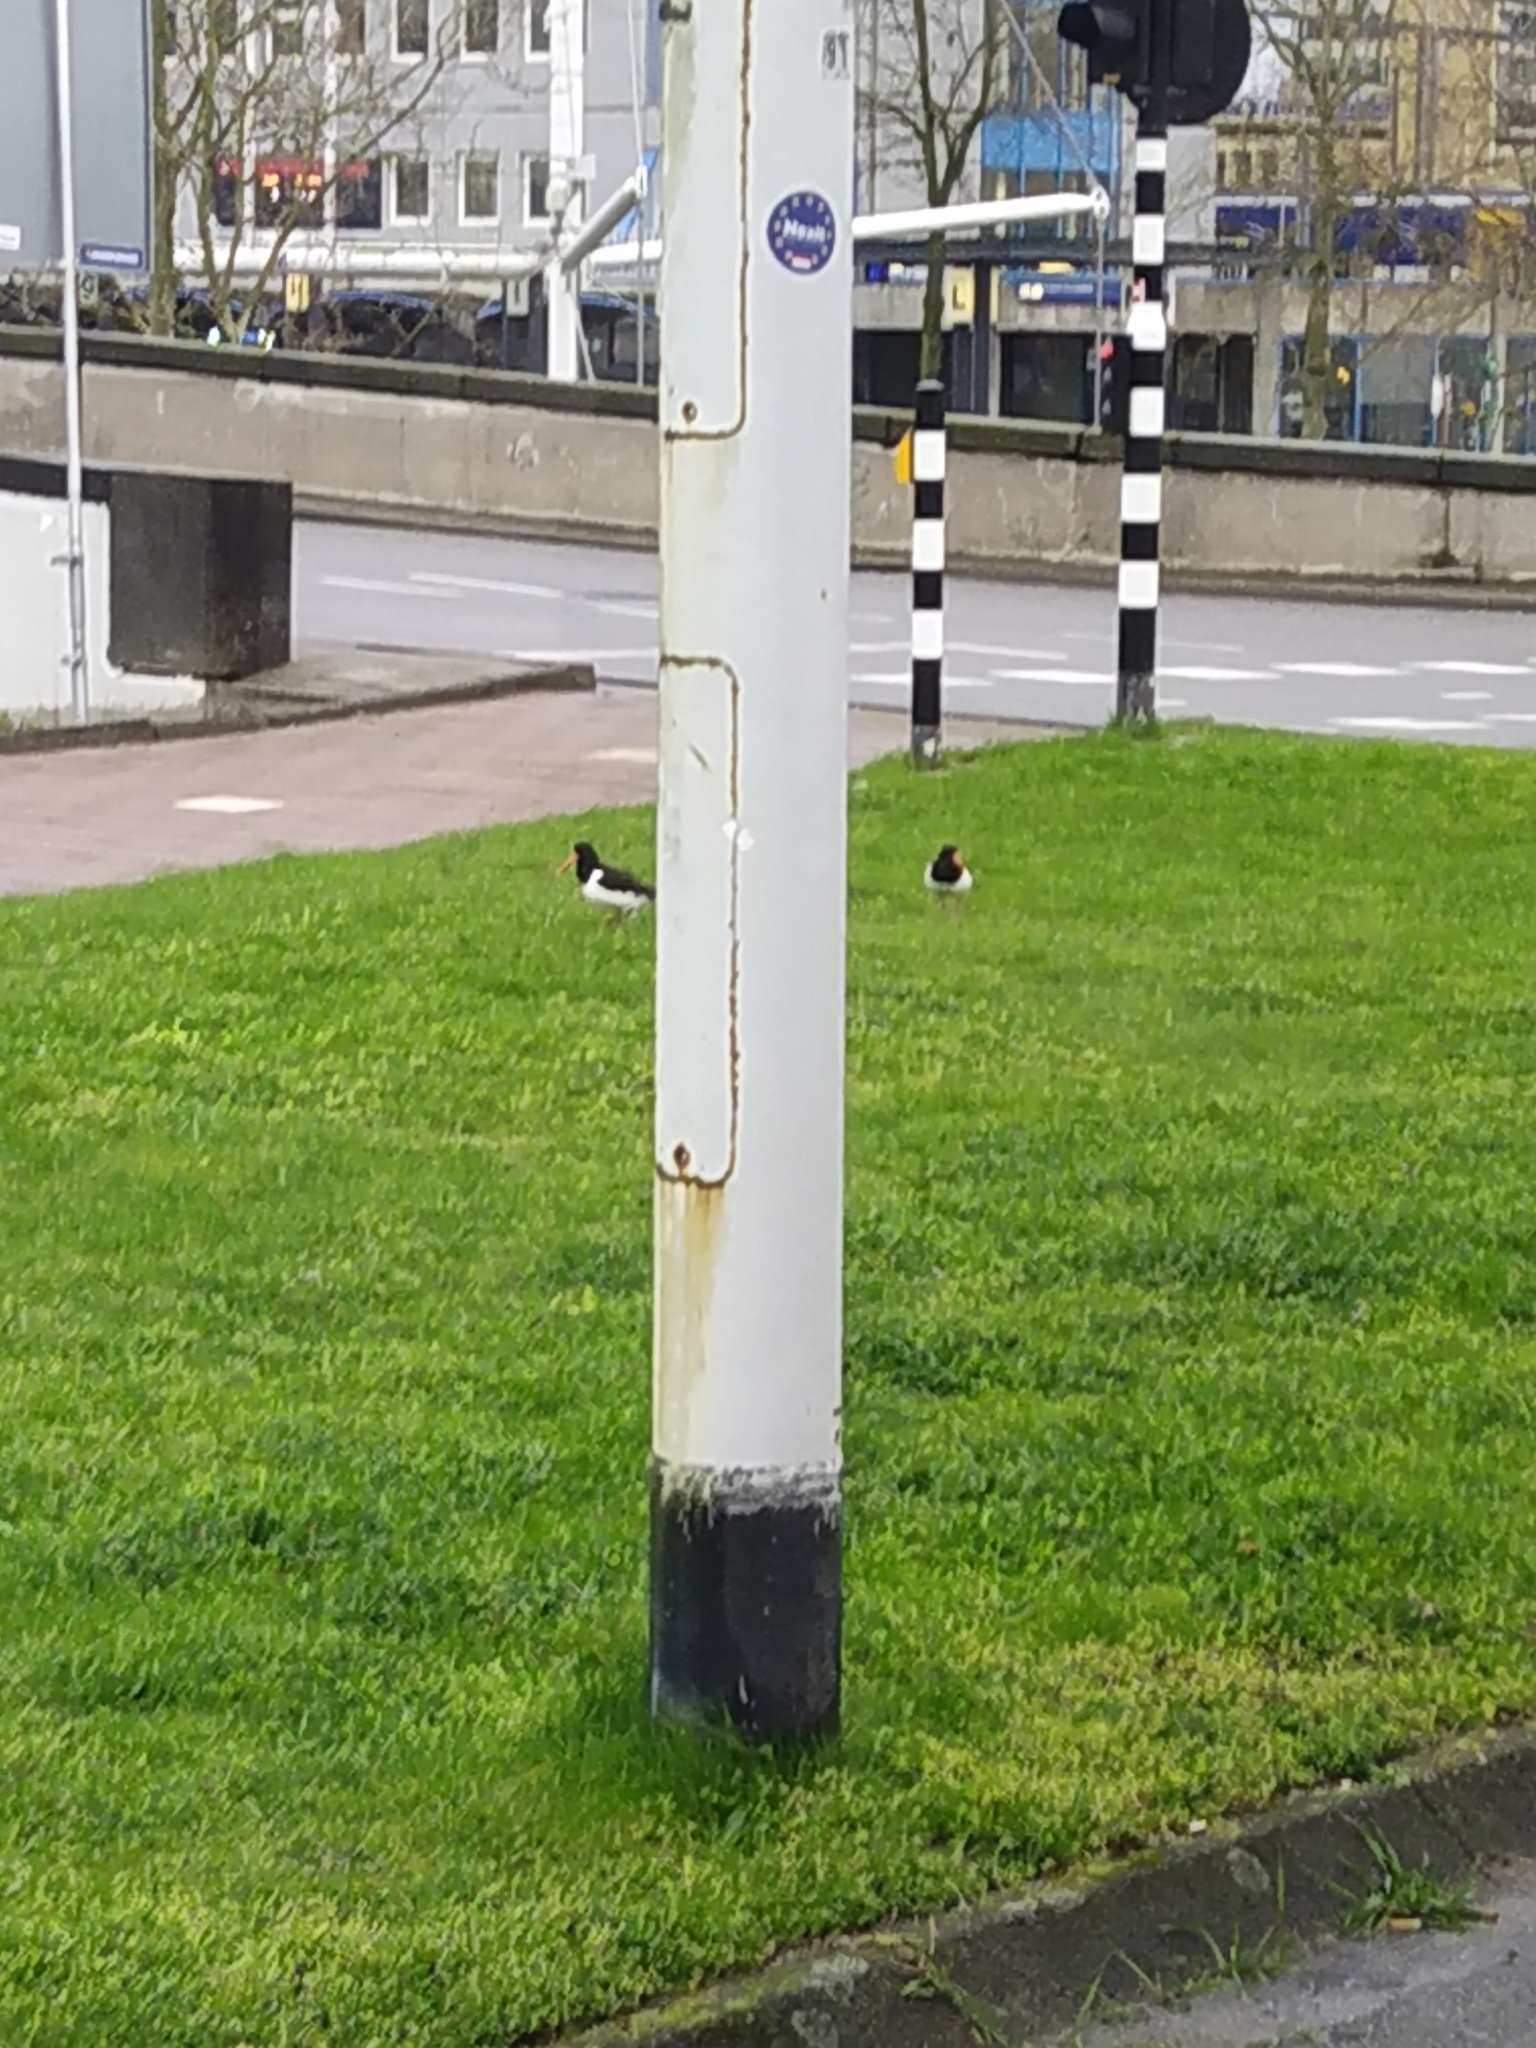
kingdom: Animalia
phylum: Chordata
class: Aves
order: Charadriiformes
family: Haematopodidae
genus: Haematopus
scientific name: Haematopus ostralegus
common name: Eurasian oystercatcher
